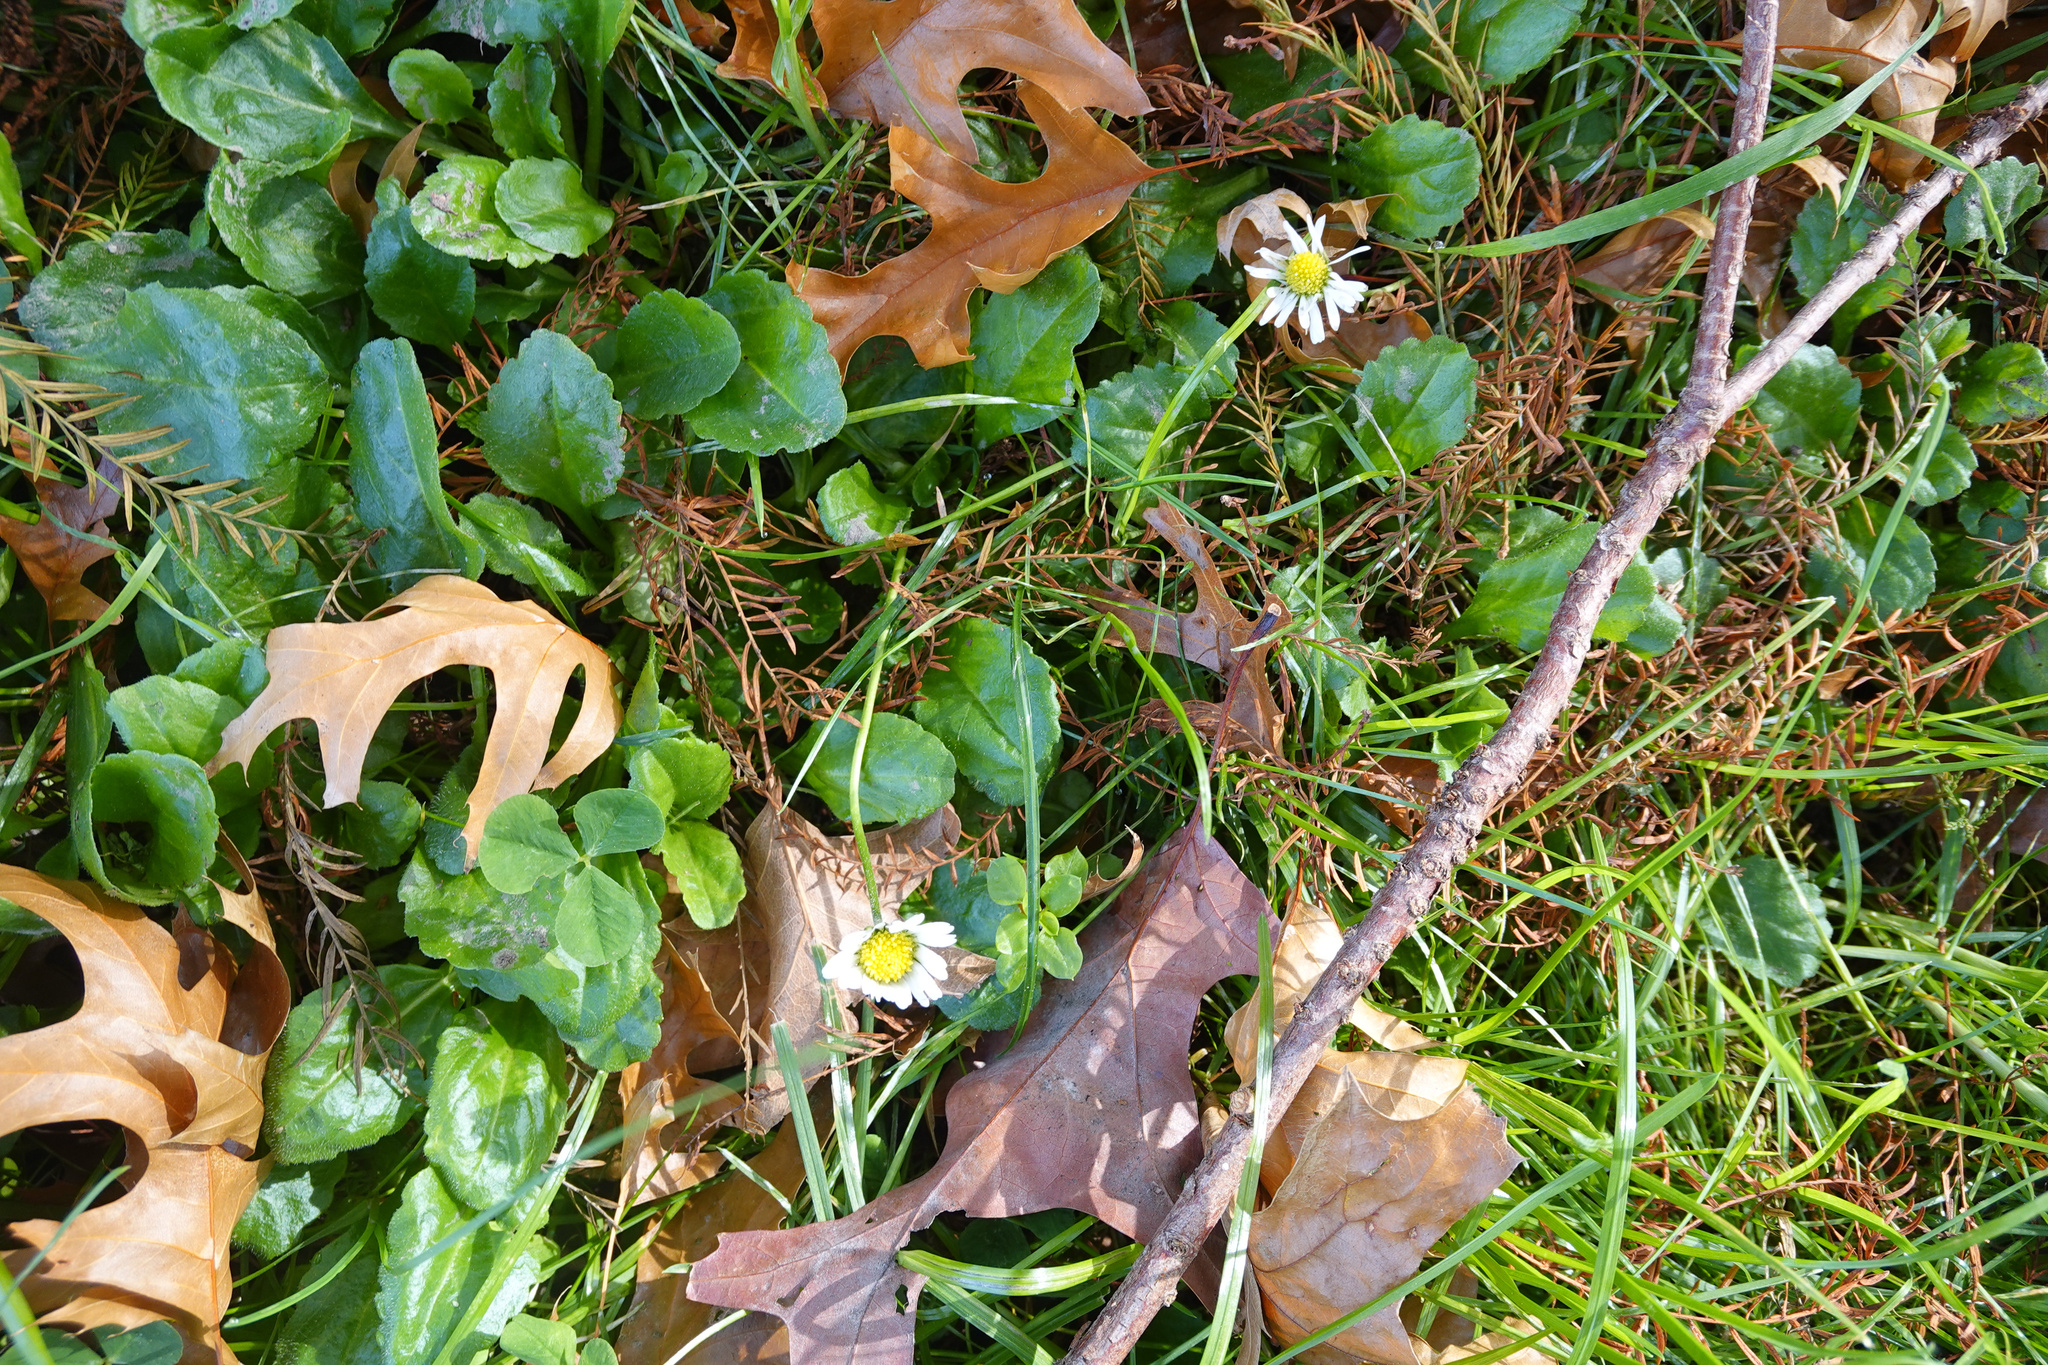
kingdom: Plantae
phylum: Tracheophyta
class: Magnoliopsida
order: Asterales
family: Asteraceae
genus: Bellis
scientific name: Bellis perennis
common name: Lawndaisy
